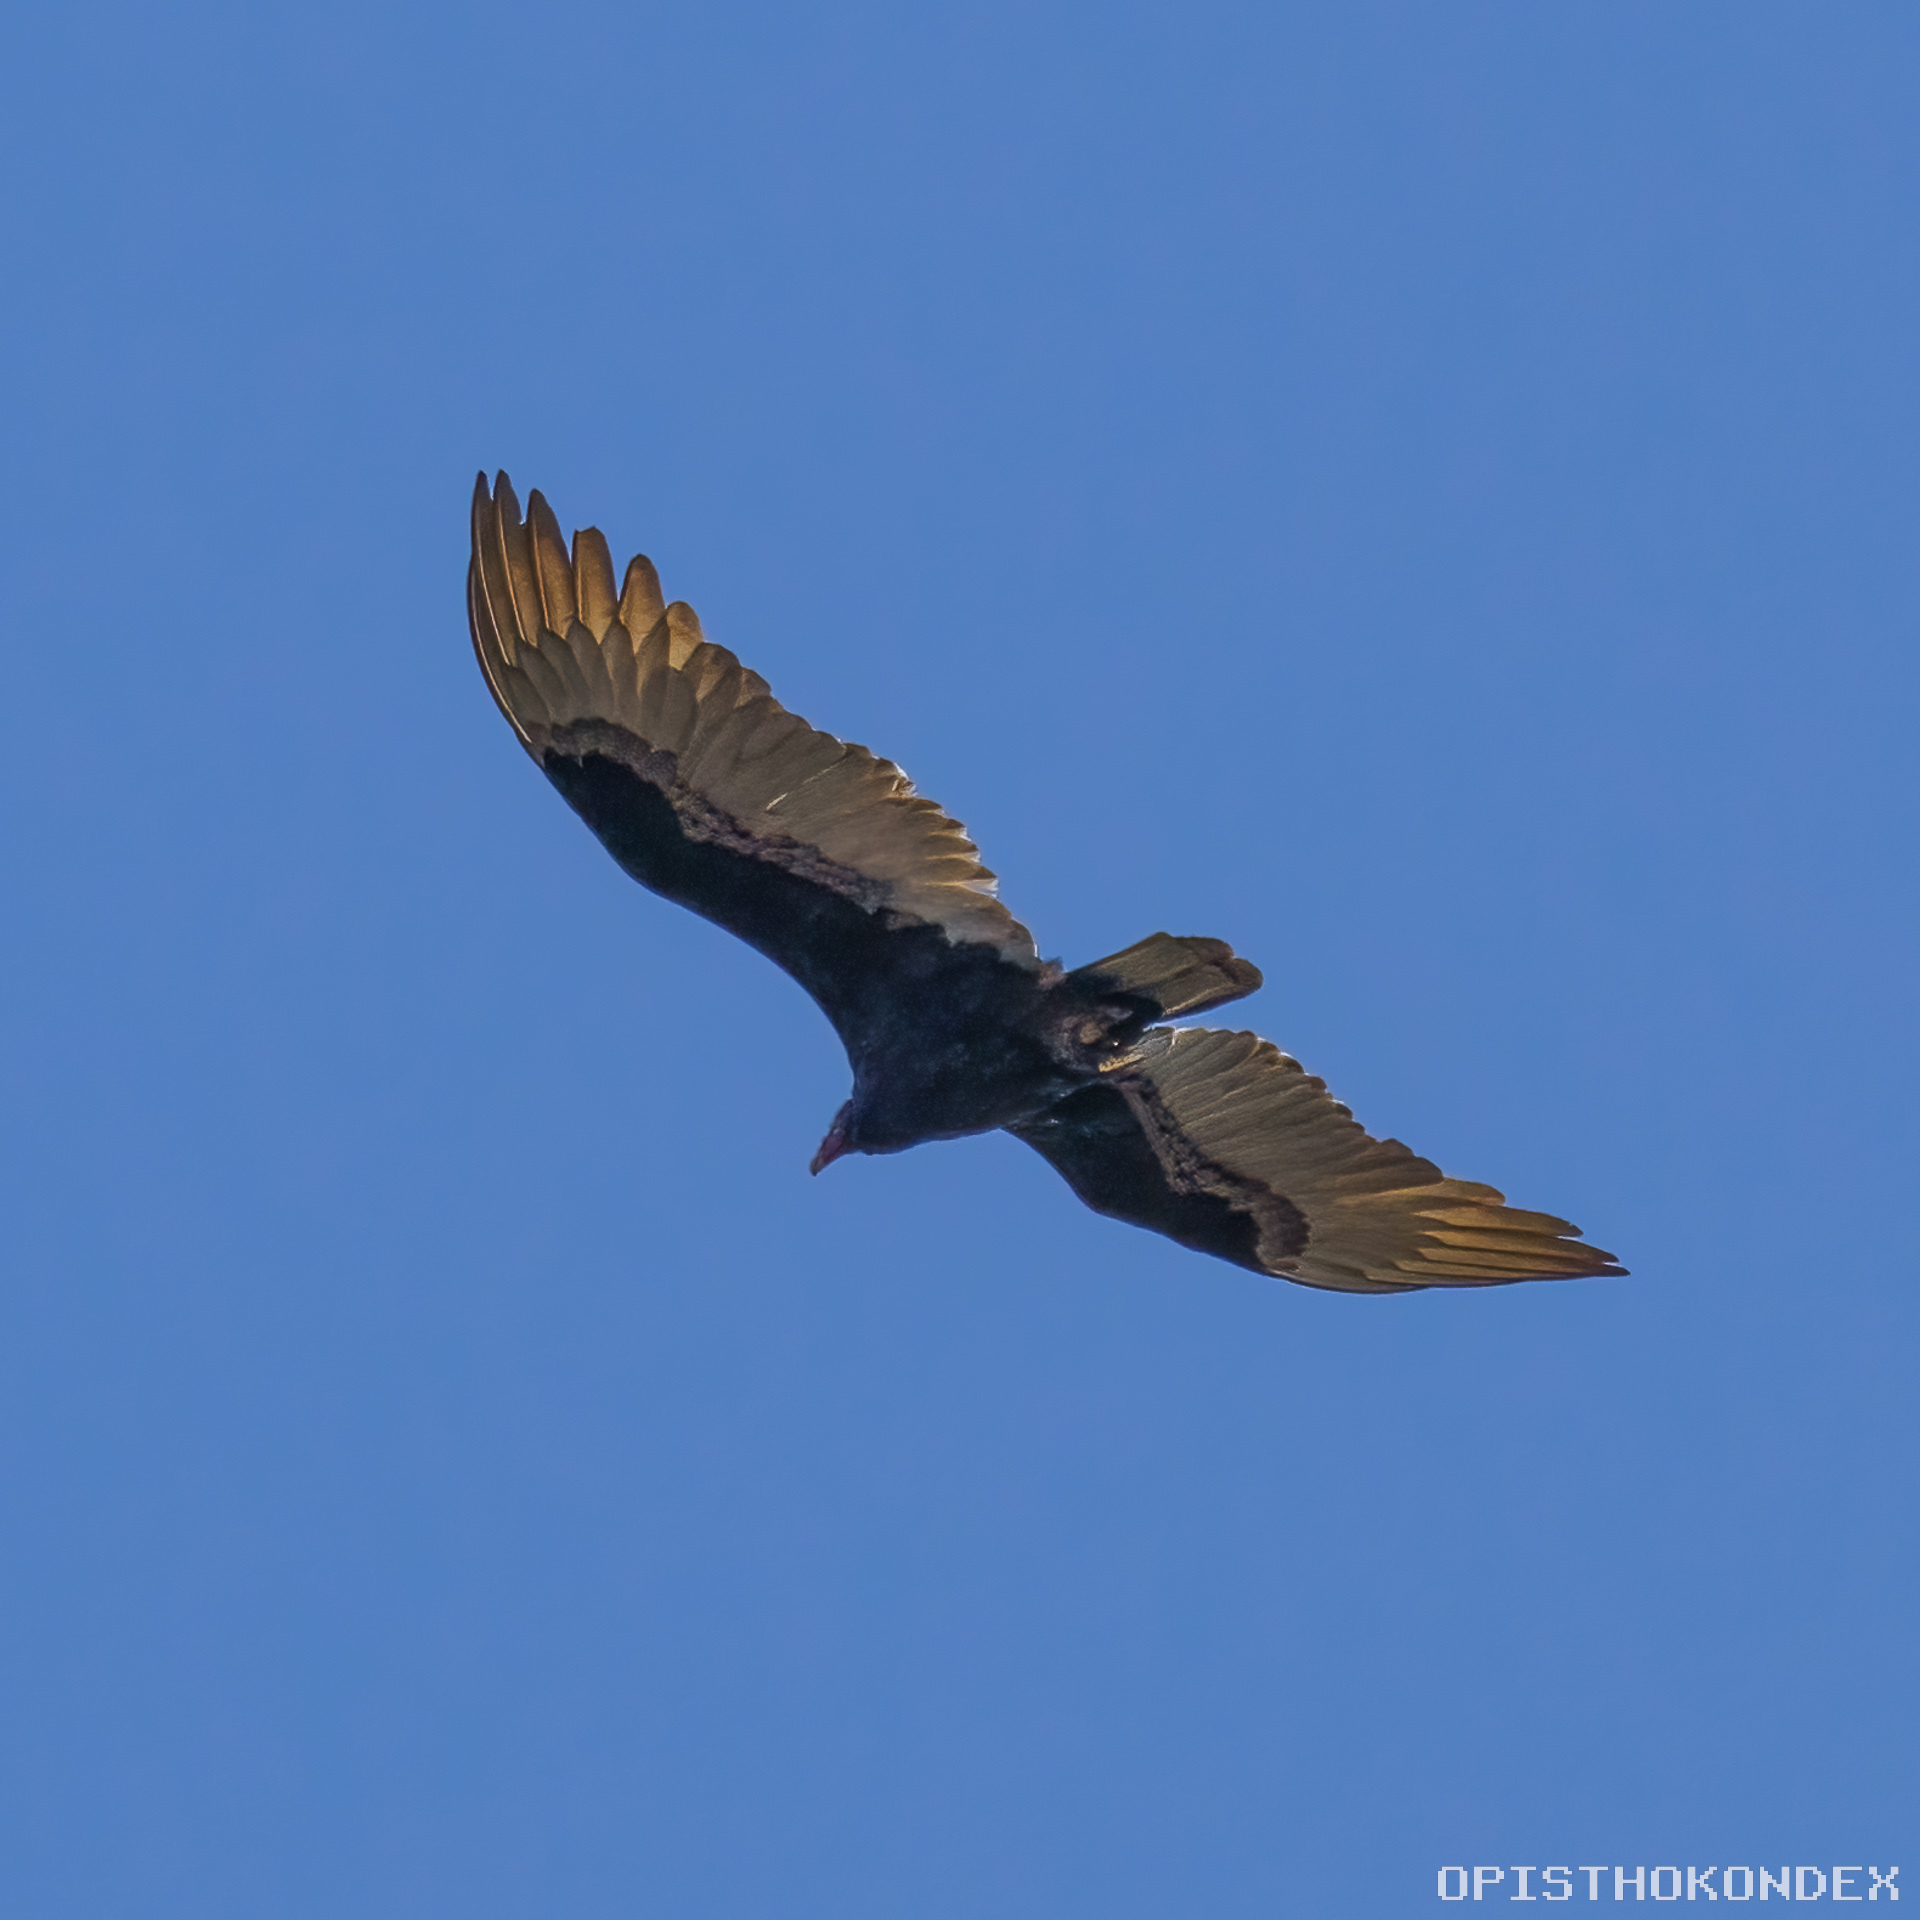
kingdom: Animalia
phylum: Chordata
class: Aves
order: Accipitriformes
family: Cathartidae
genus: Cathartes
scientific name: Cathartes aura
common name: Turkey vulture
